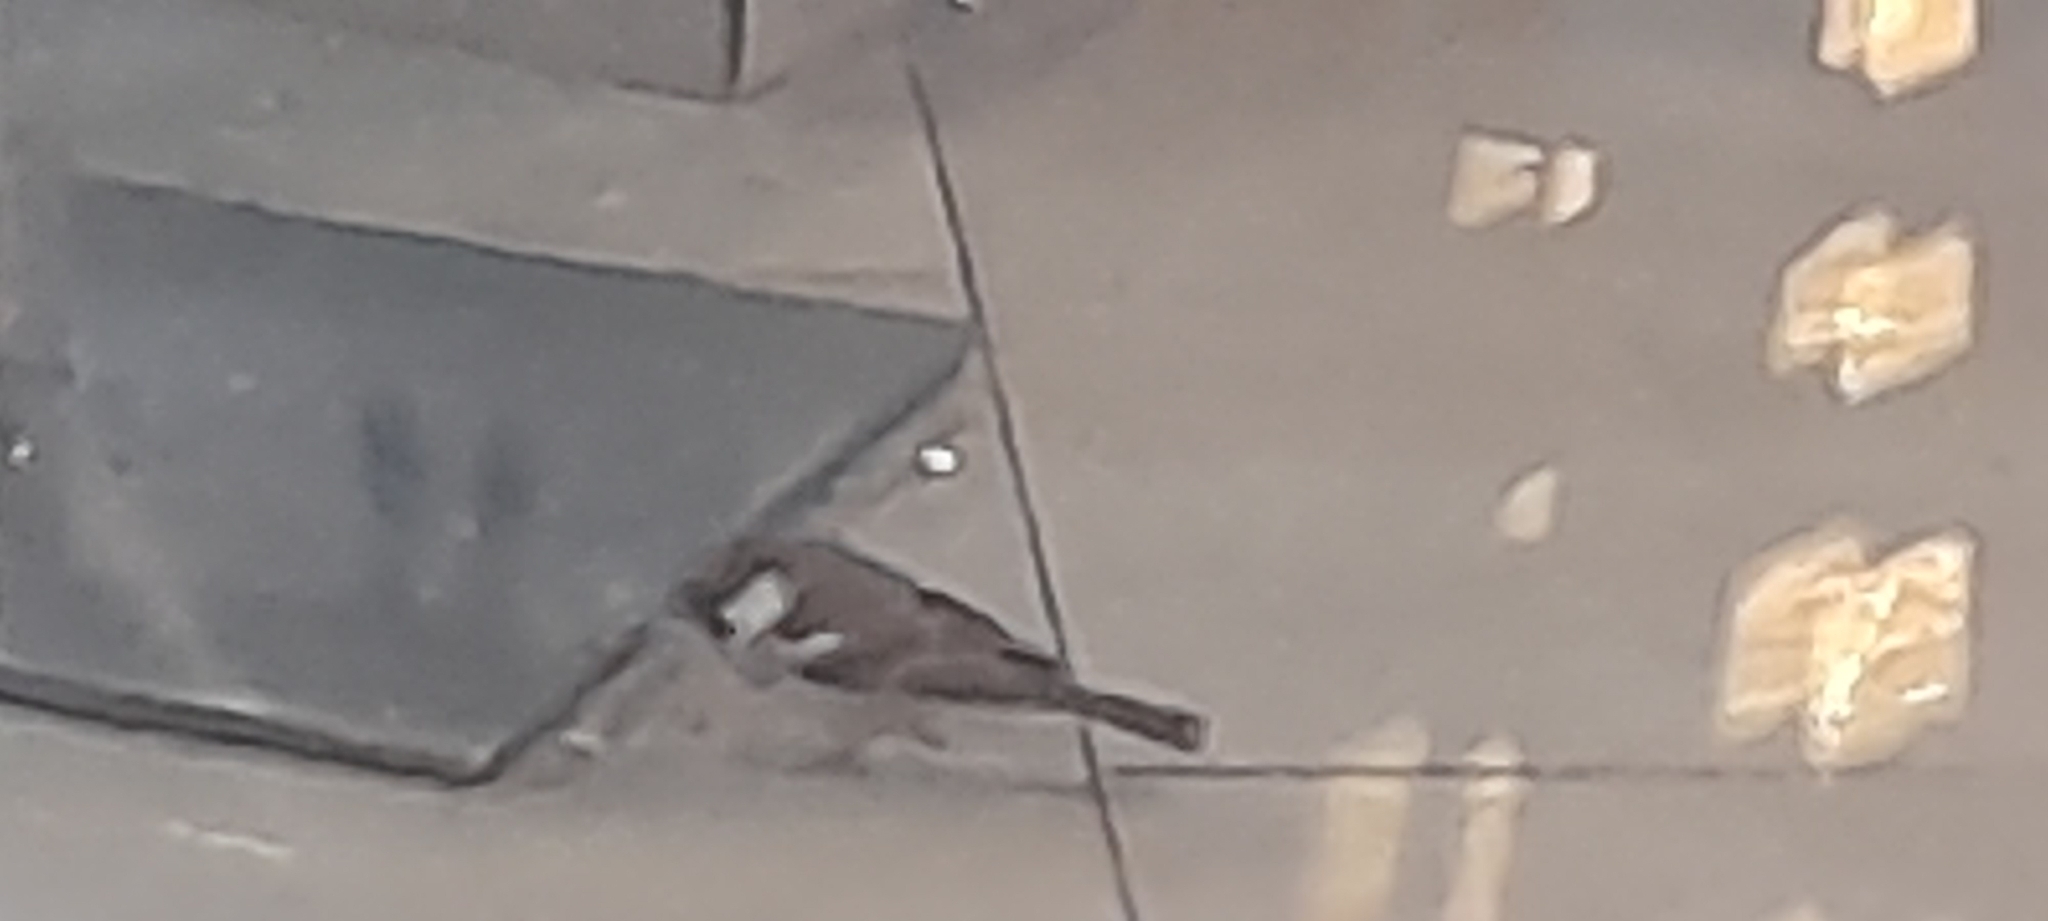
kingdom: Animalia
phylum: Chordata
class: Aves
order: Passeriformes
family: Passeridae
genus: Passer
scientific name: Passer domesticus
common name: House sparrow
